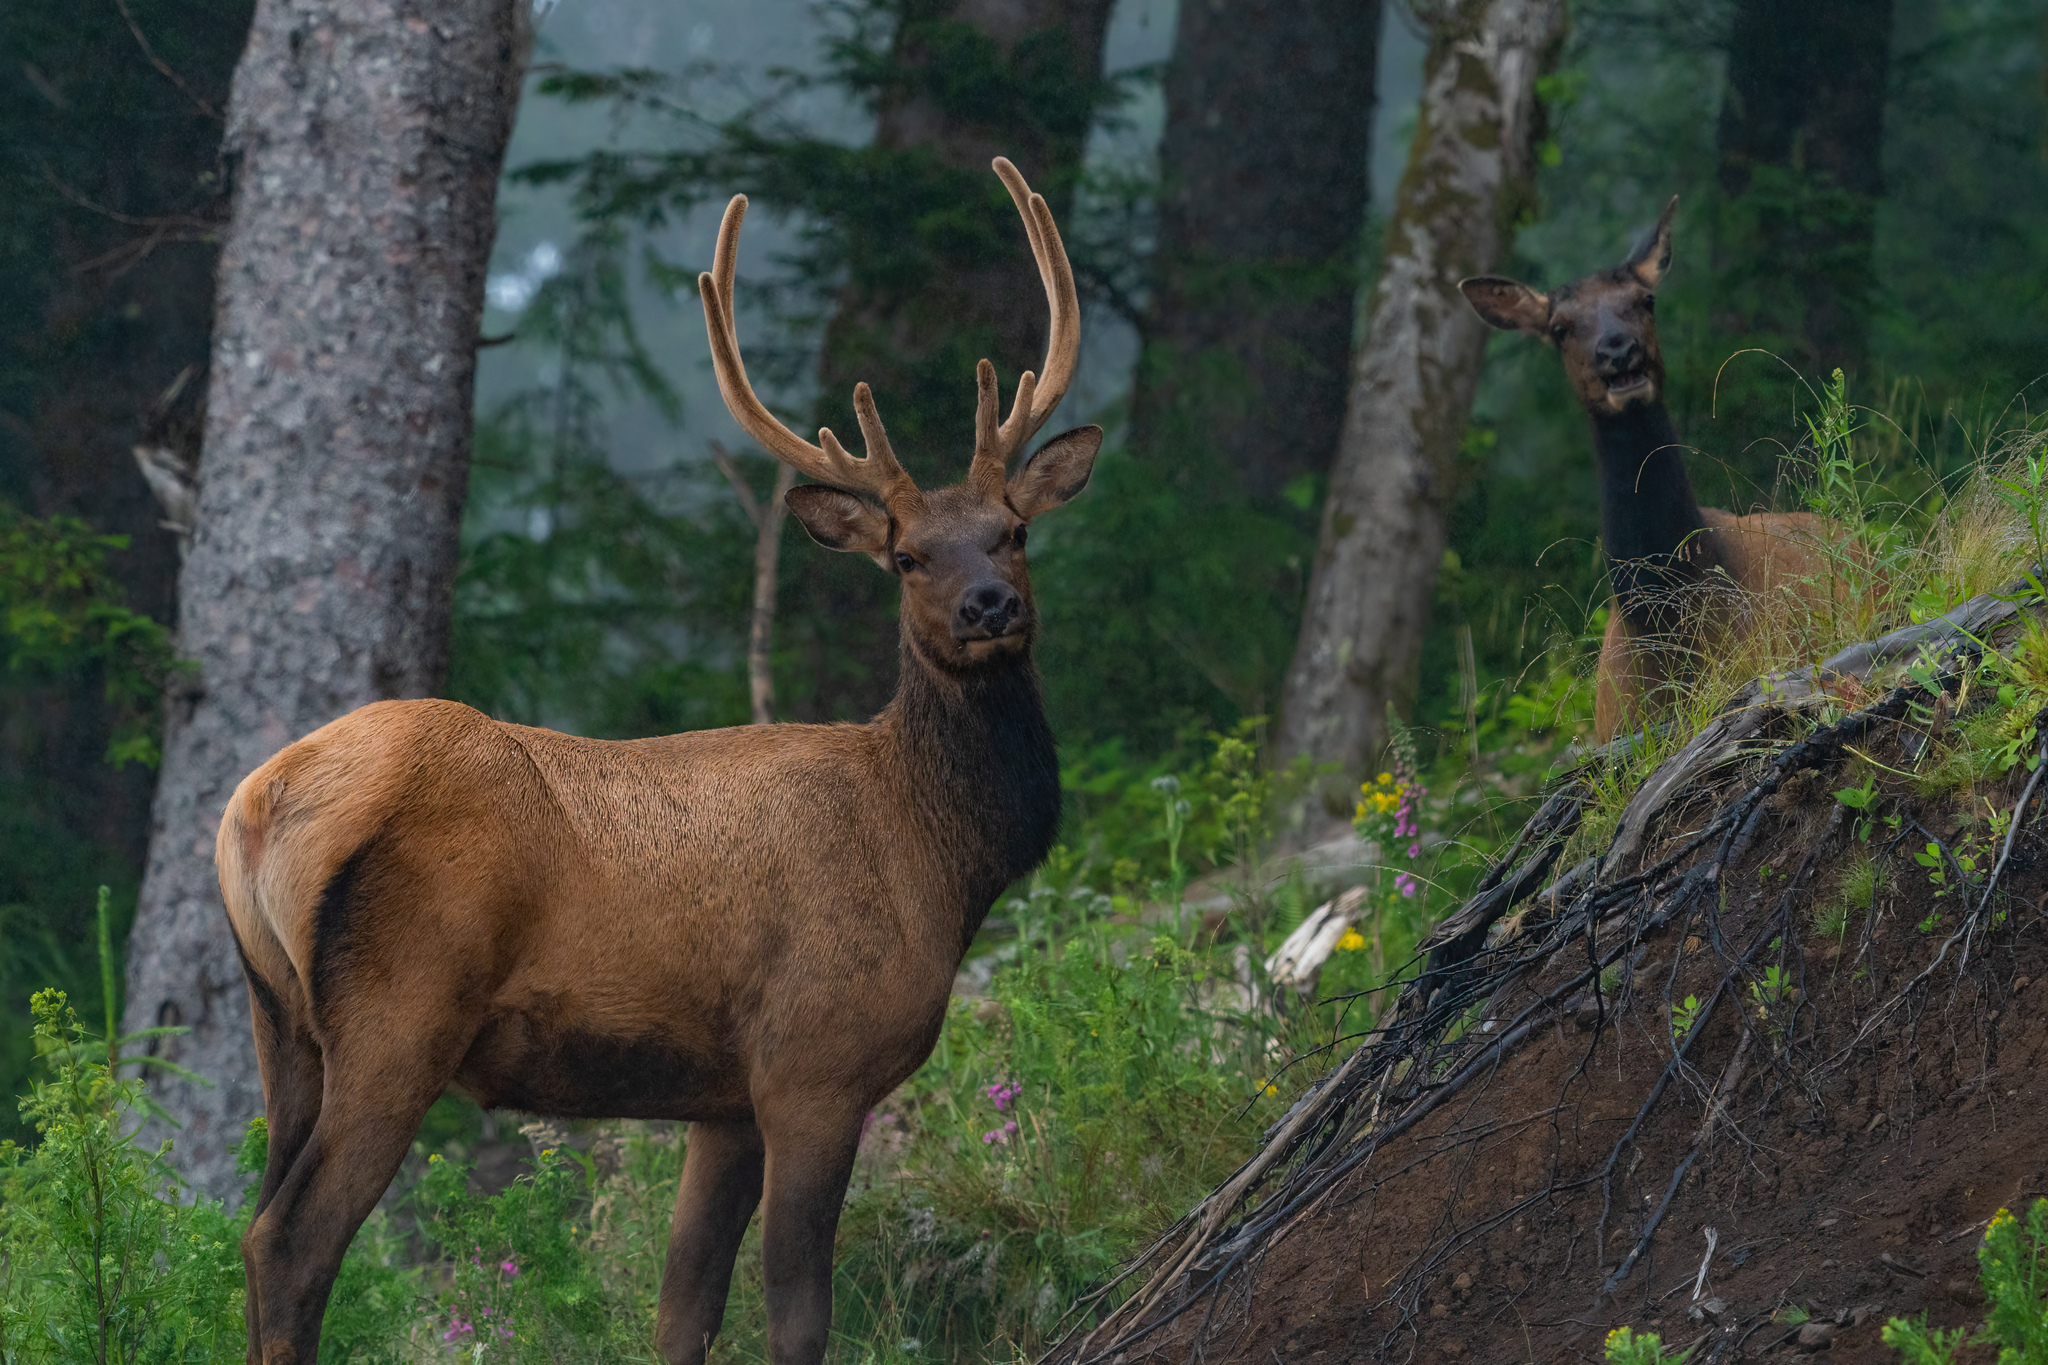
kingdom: Animalia
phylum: Chordata
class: Mammalia
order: Artiodactyla
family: Cervidae
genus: Cervus
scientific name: Cervus elaphus
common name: Red deer
